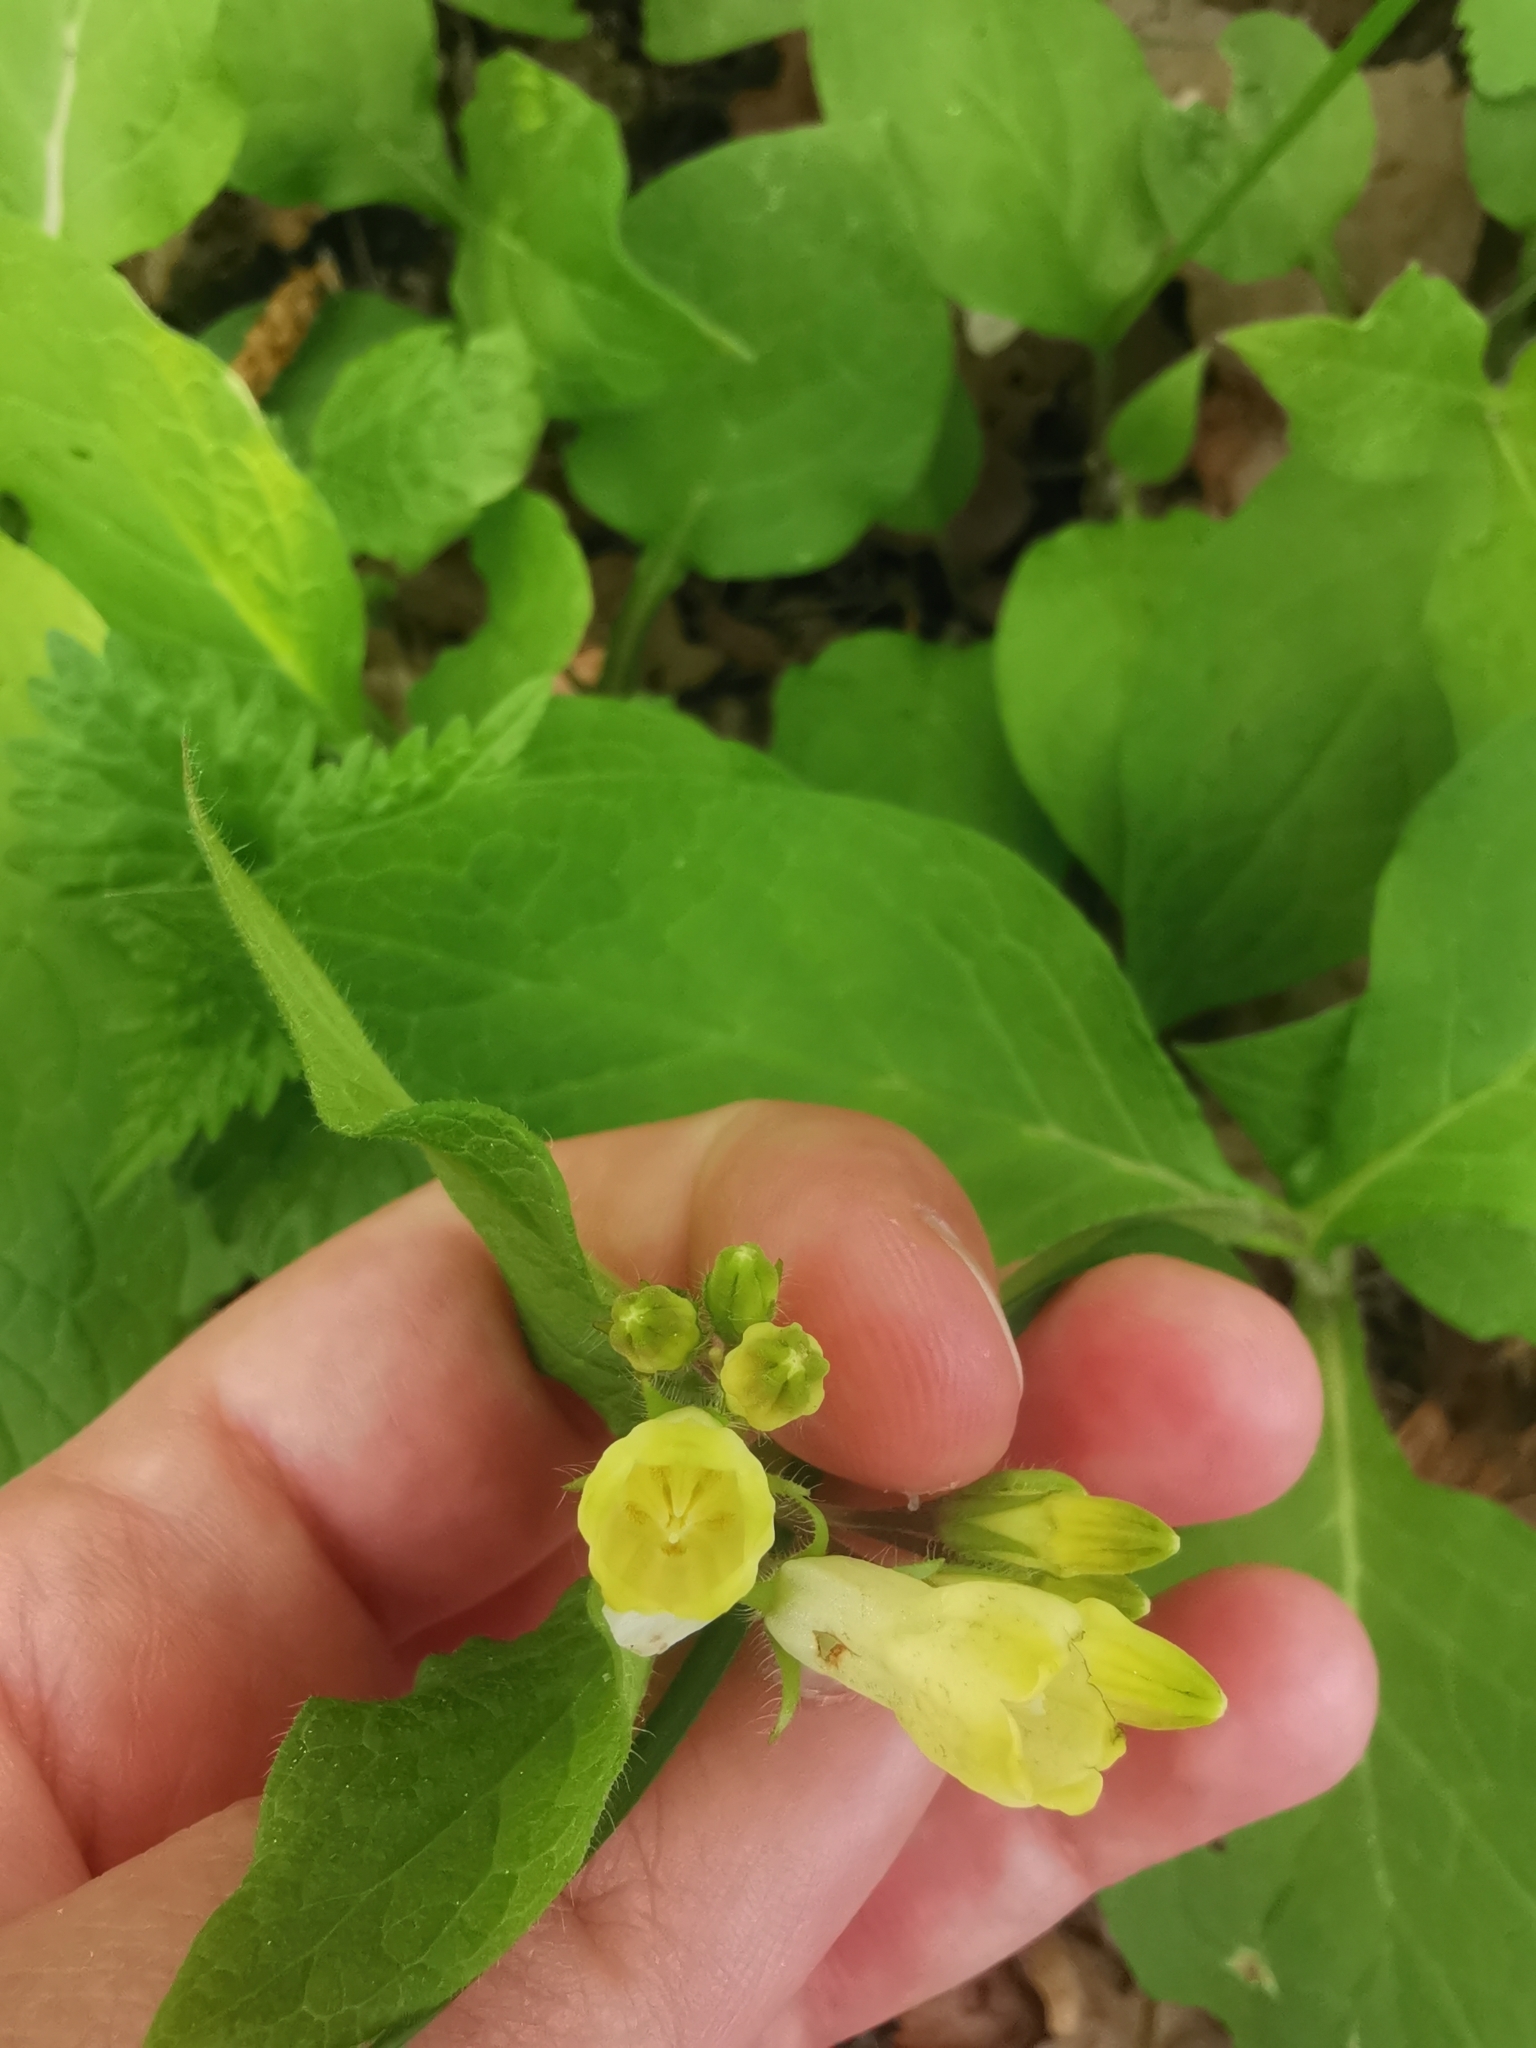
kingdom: Plantae
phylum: Tracheophyta
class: Magnoliopsida
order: Boraginales
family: Boraginaceae
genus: Symphytum
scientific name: Symphytum tuberosum
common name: Tuberous comfrey
